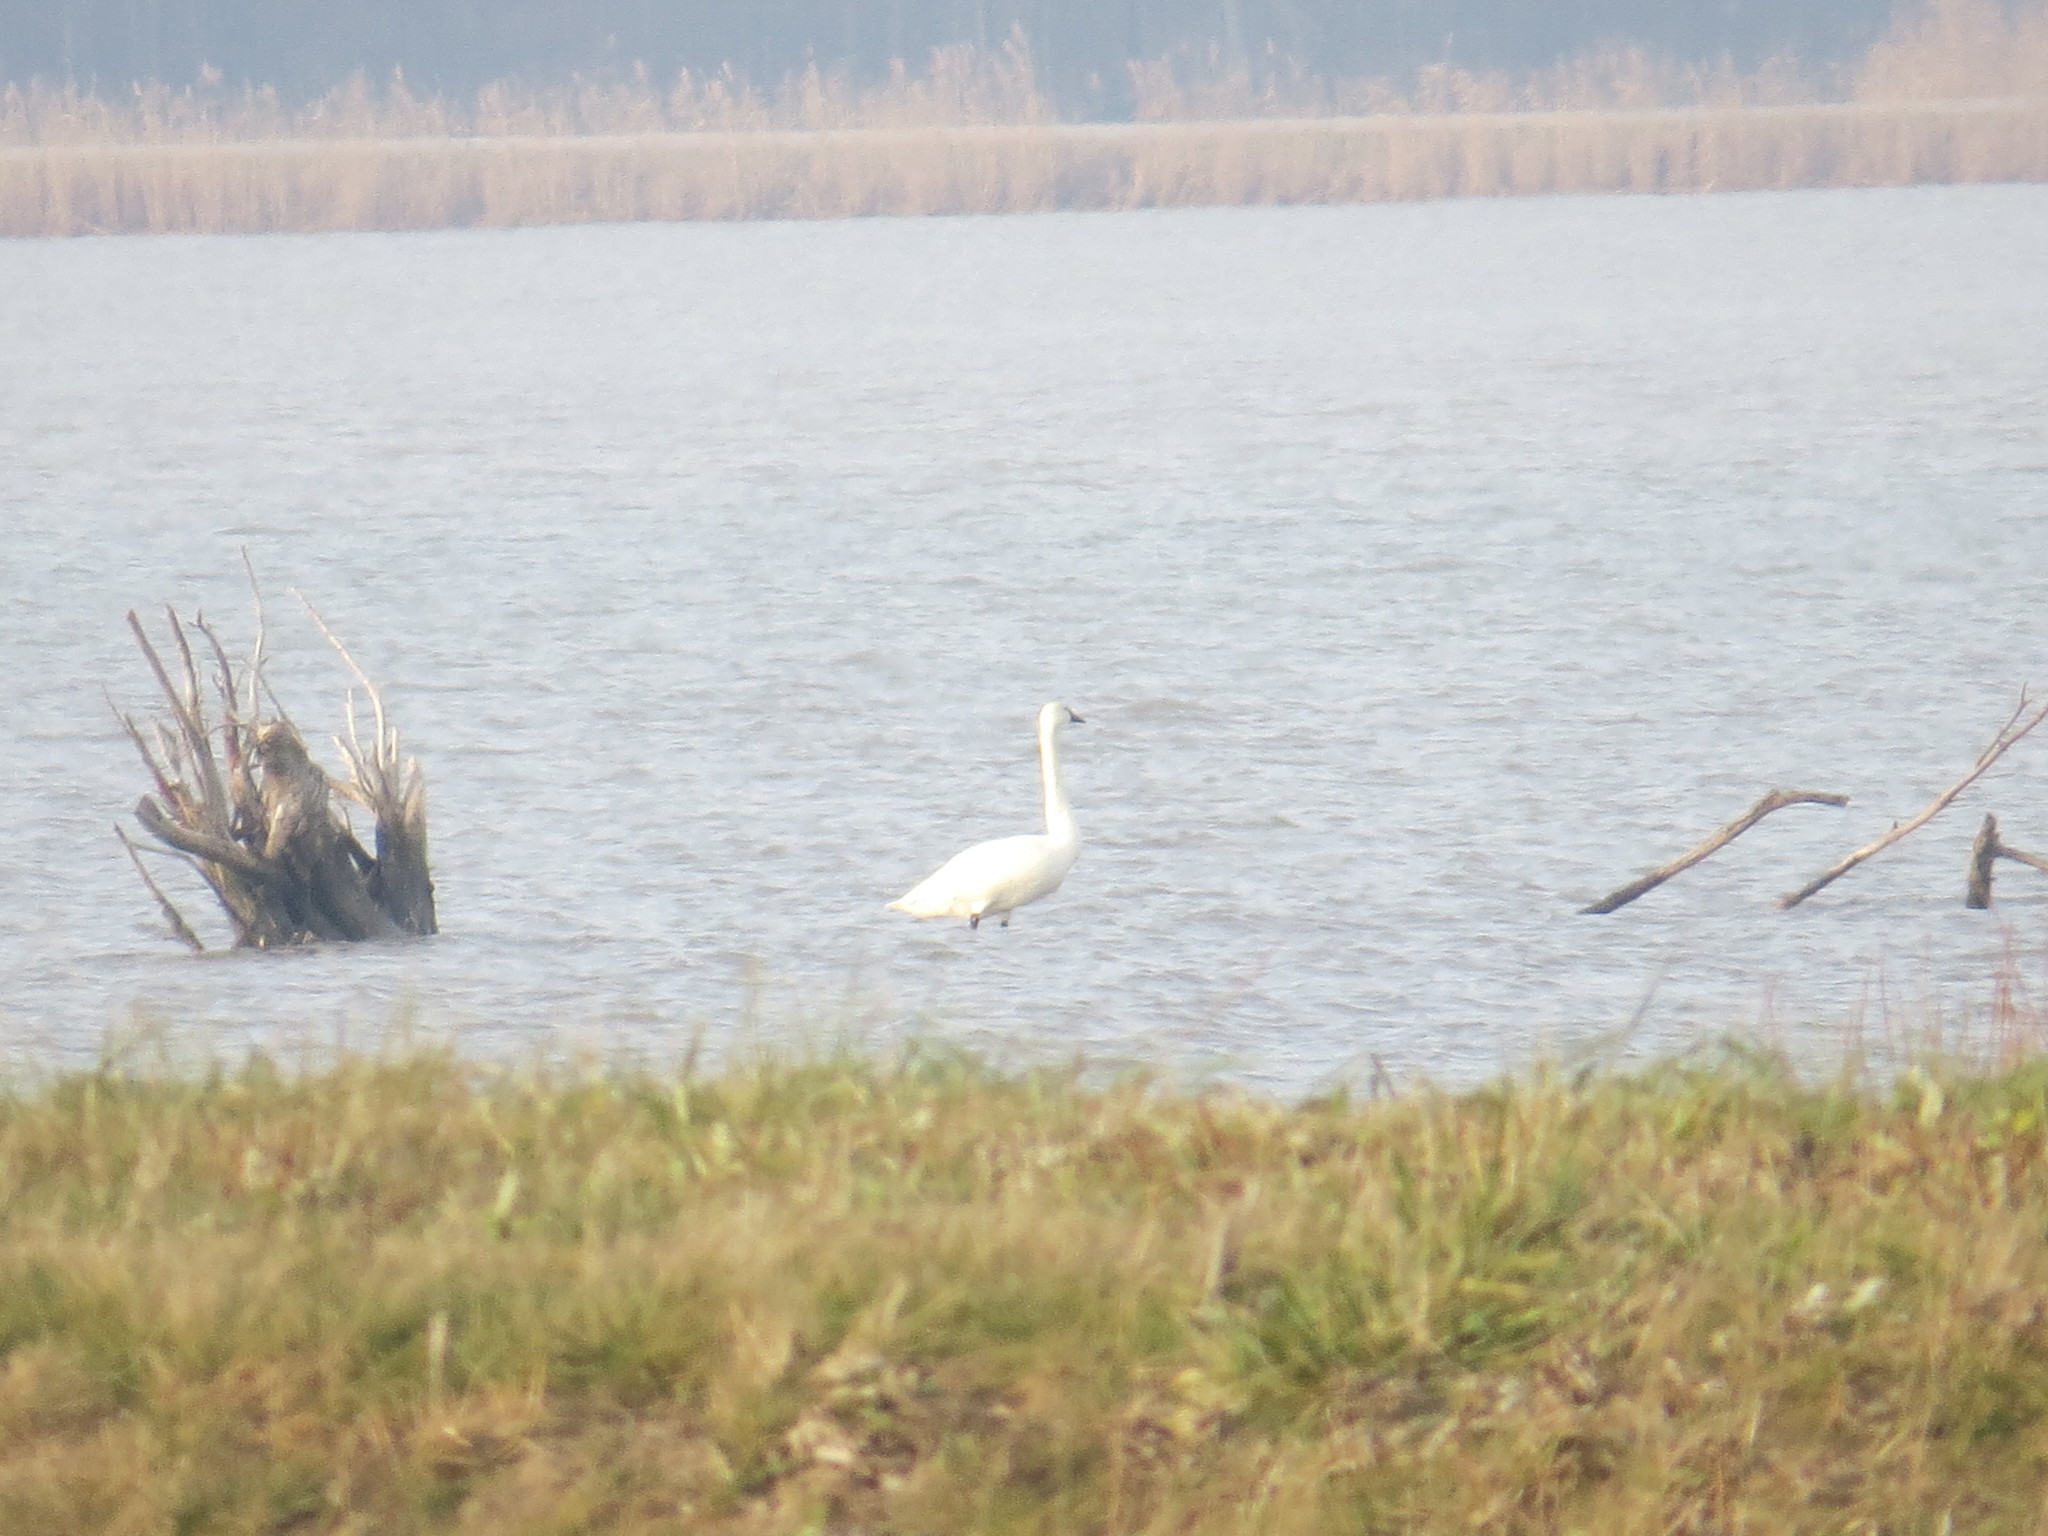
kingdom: Animalia
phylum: Chordata
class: Aves
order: Anseriformes
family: Anatidae
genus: Cygnus
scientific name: Cygnus columbianus
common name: Tundra swan
